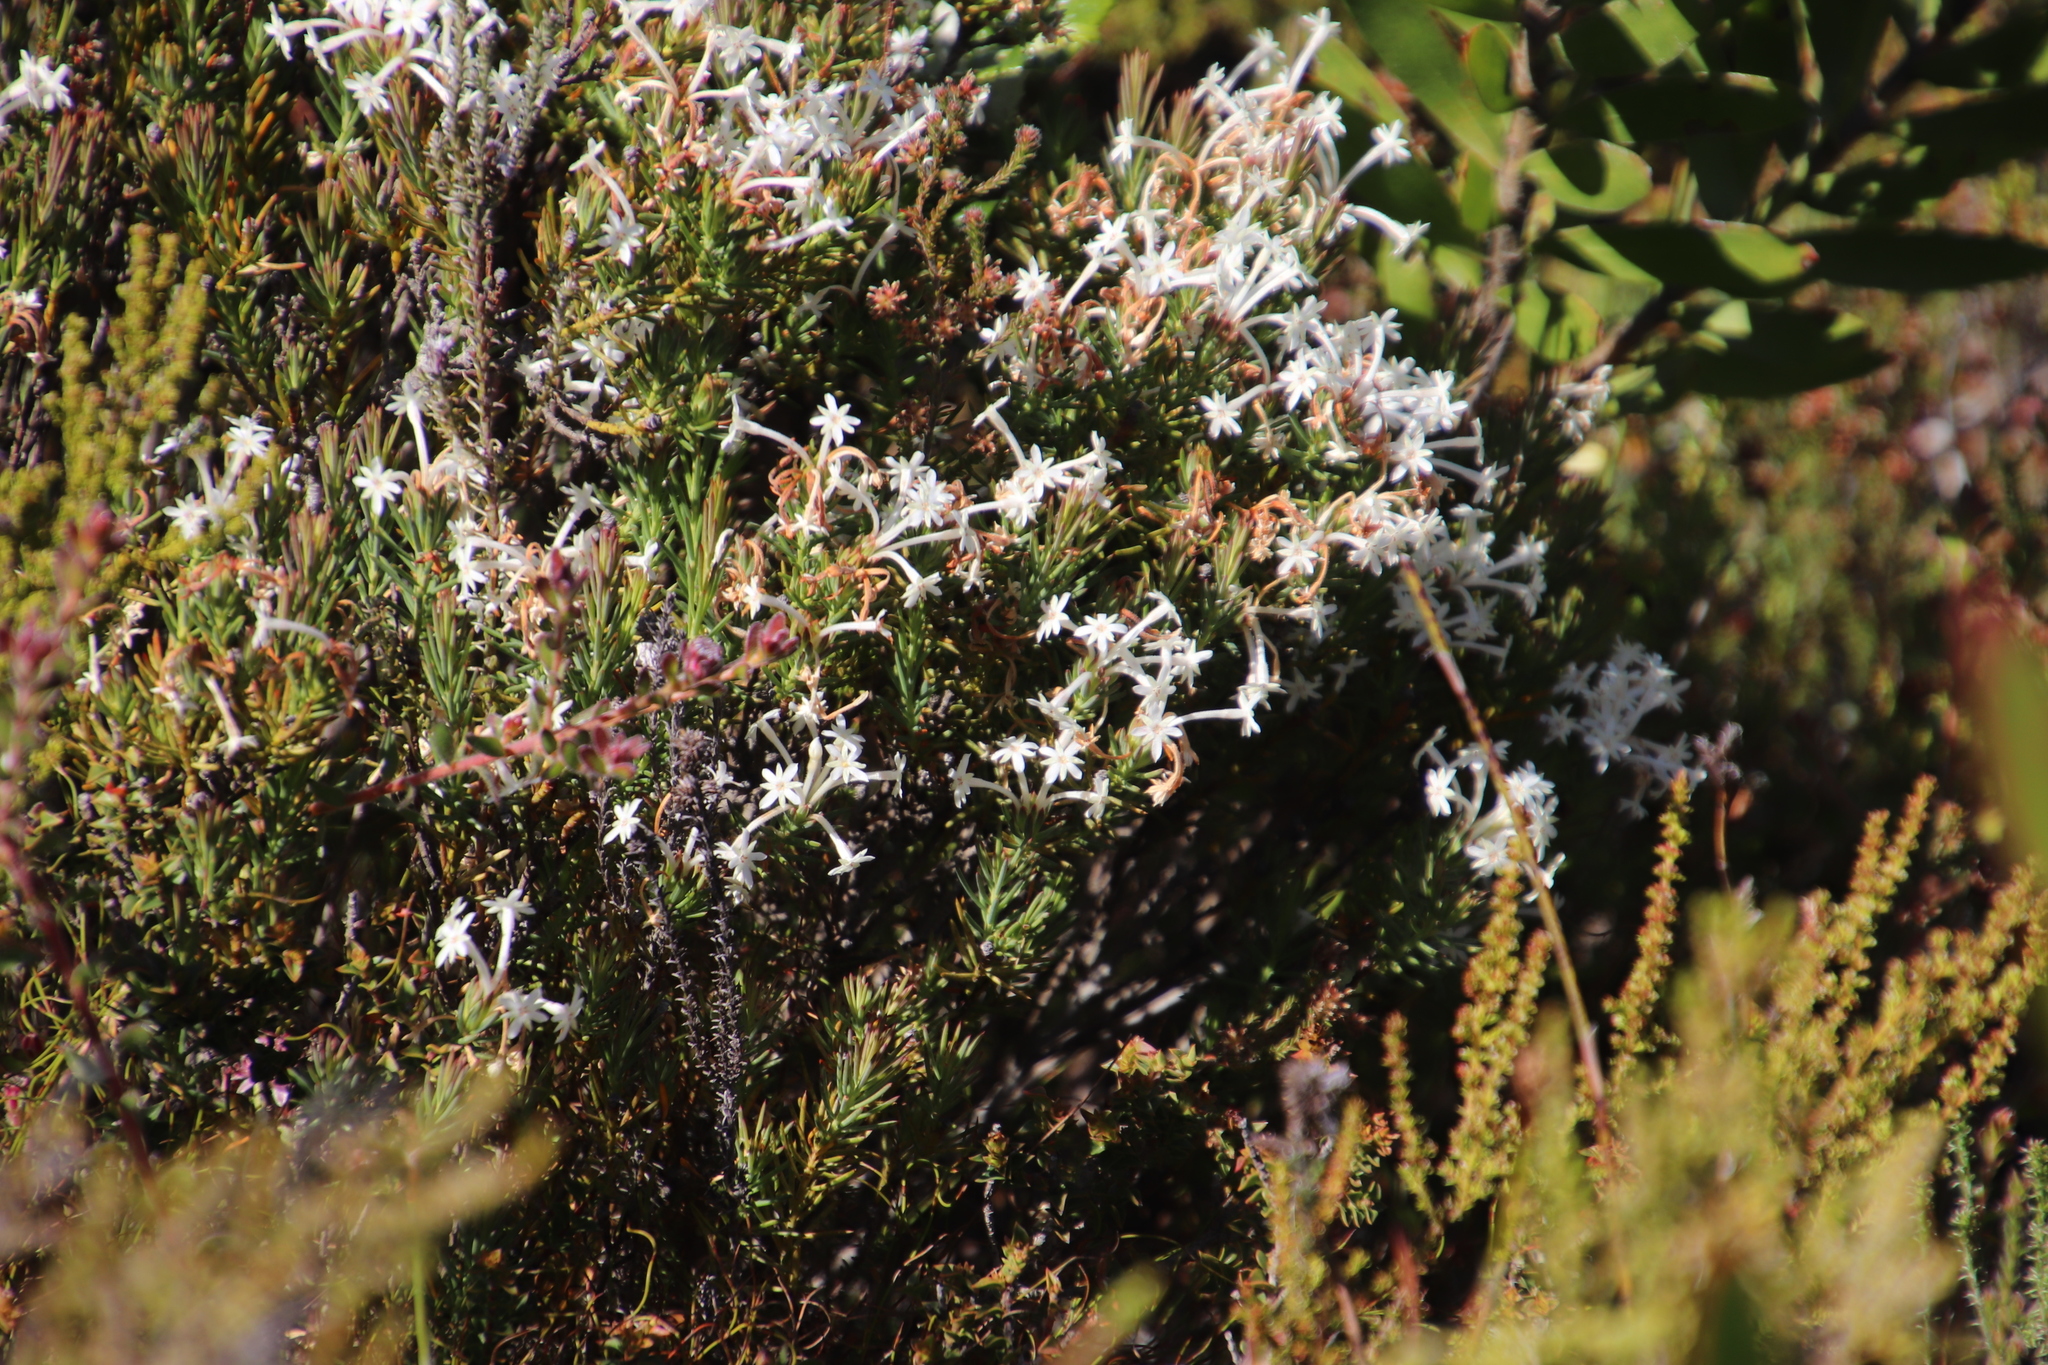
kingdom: Plantae
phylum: Tracheophyta
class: Magnoliopsida
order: Malvales
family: Thymelaeaceae
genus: Gnidia
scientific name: Gnidia pinifolia
